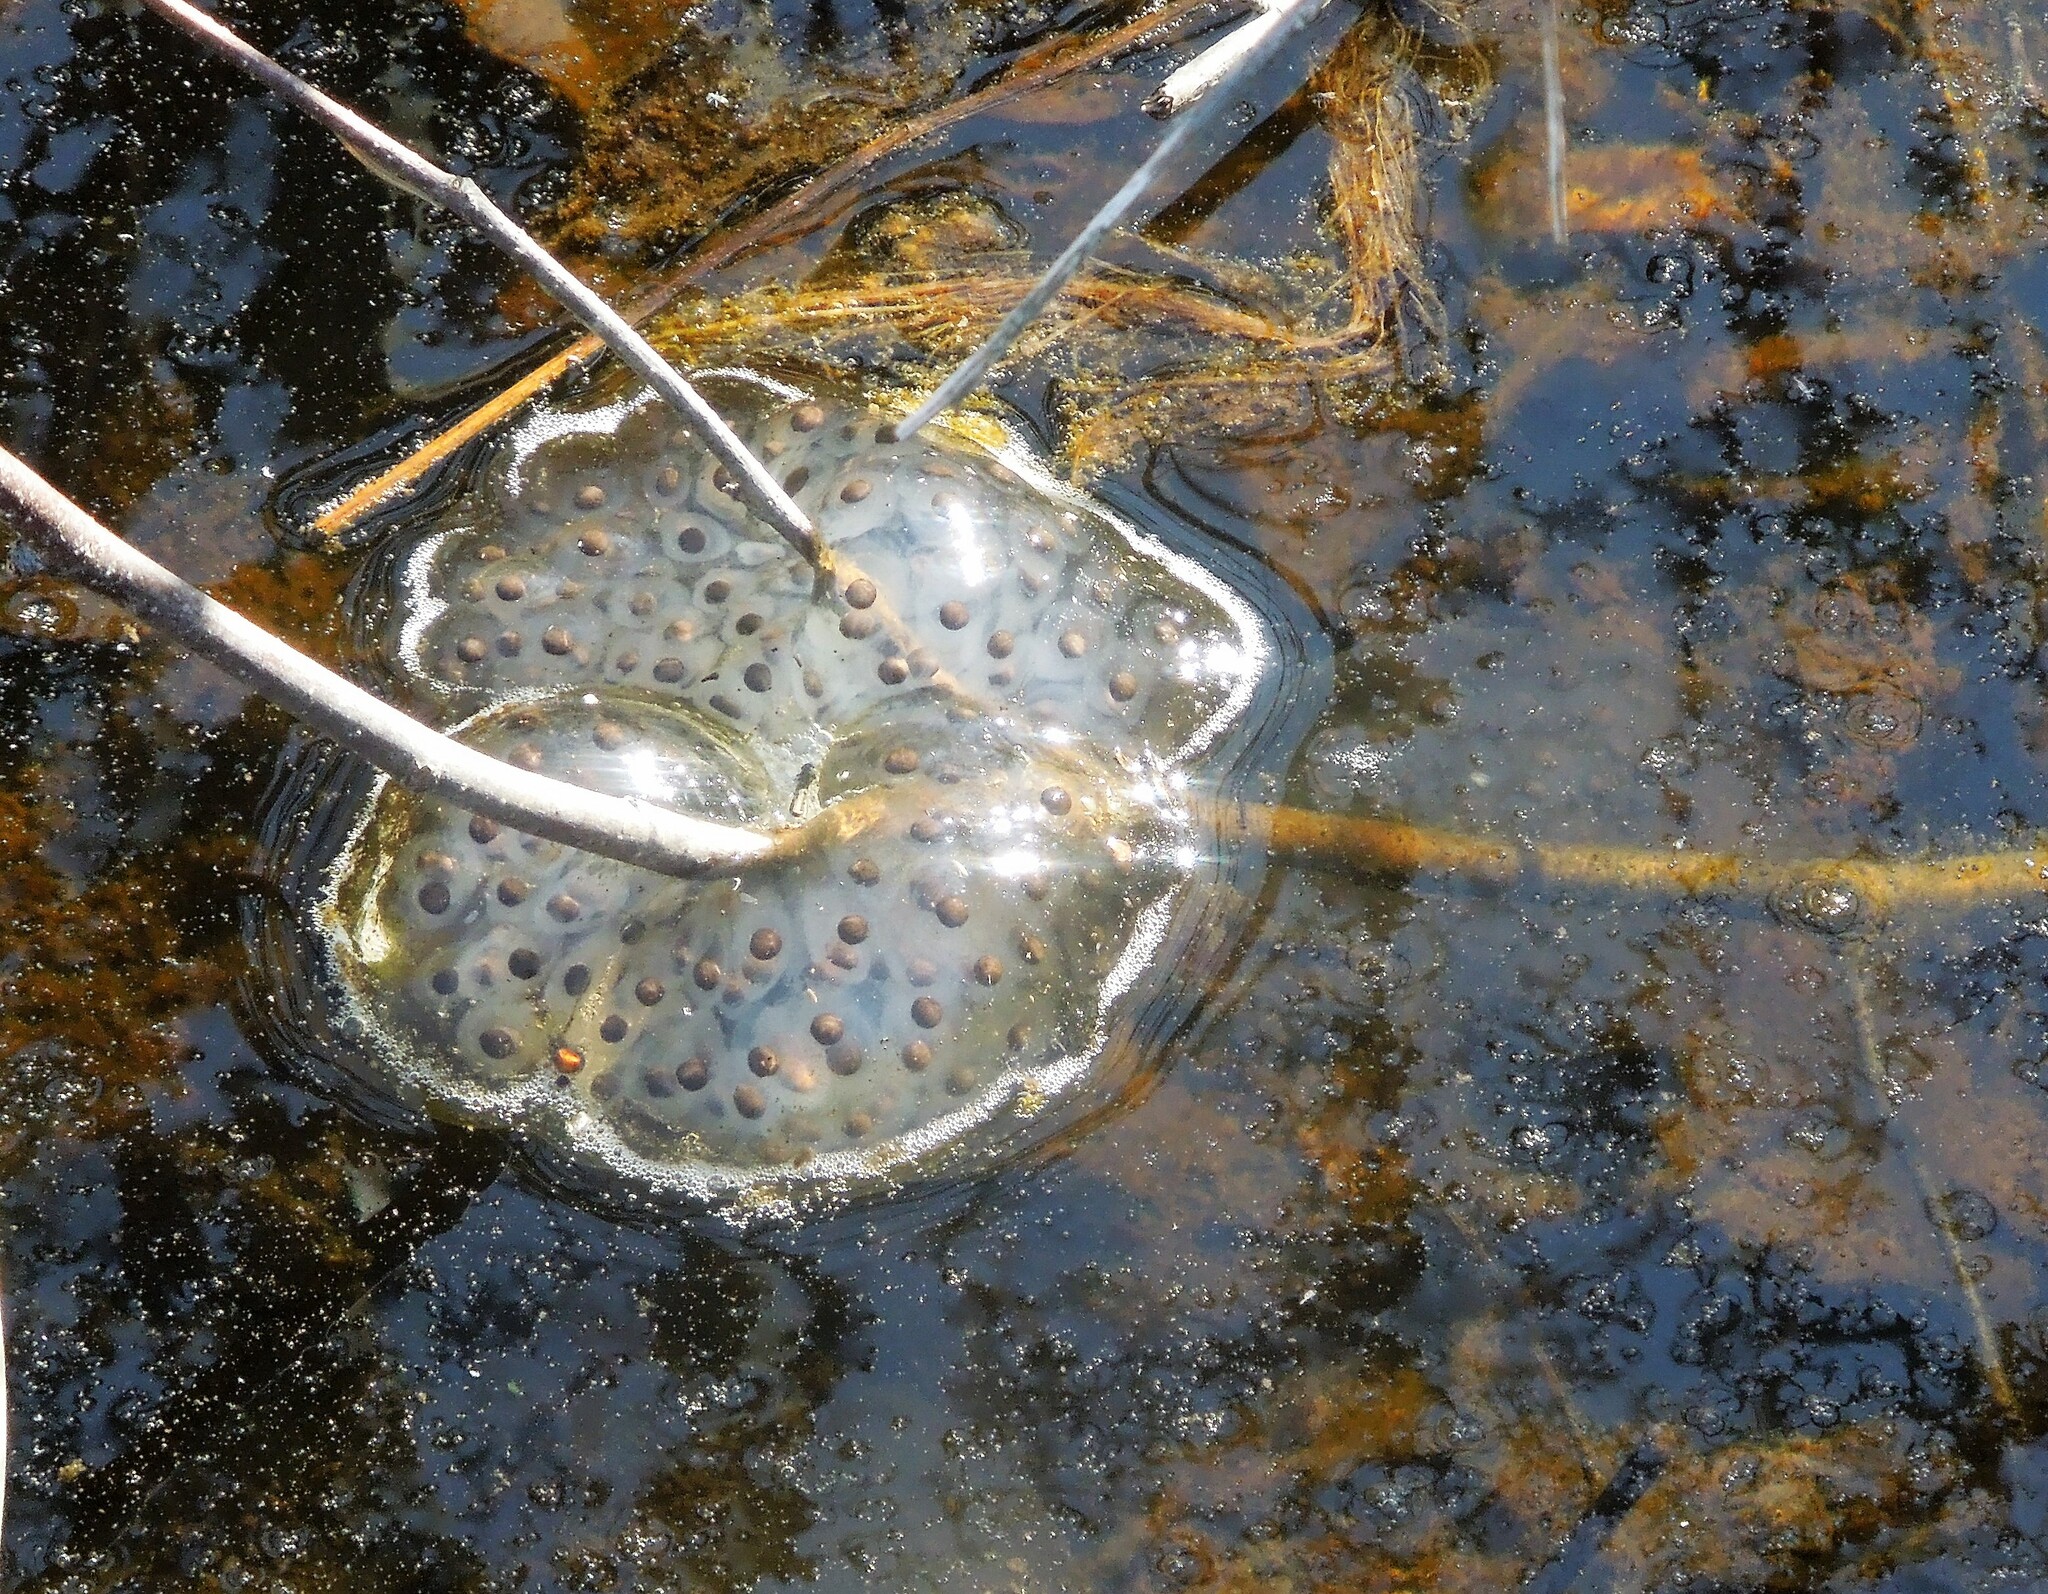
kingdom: Animalia
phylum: Chordata
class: Amphibia
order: Caudata
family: Ambystomatidae
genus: Ambystoma
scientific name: Ambystoma maculatum
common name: Spotted salamander
